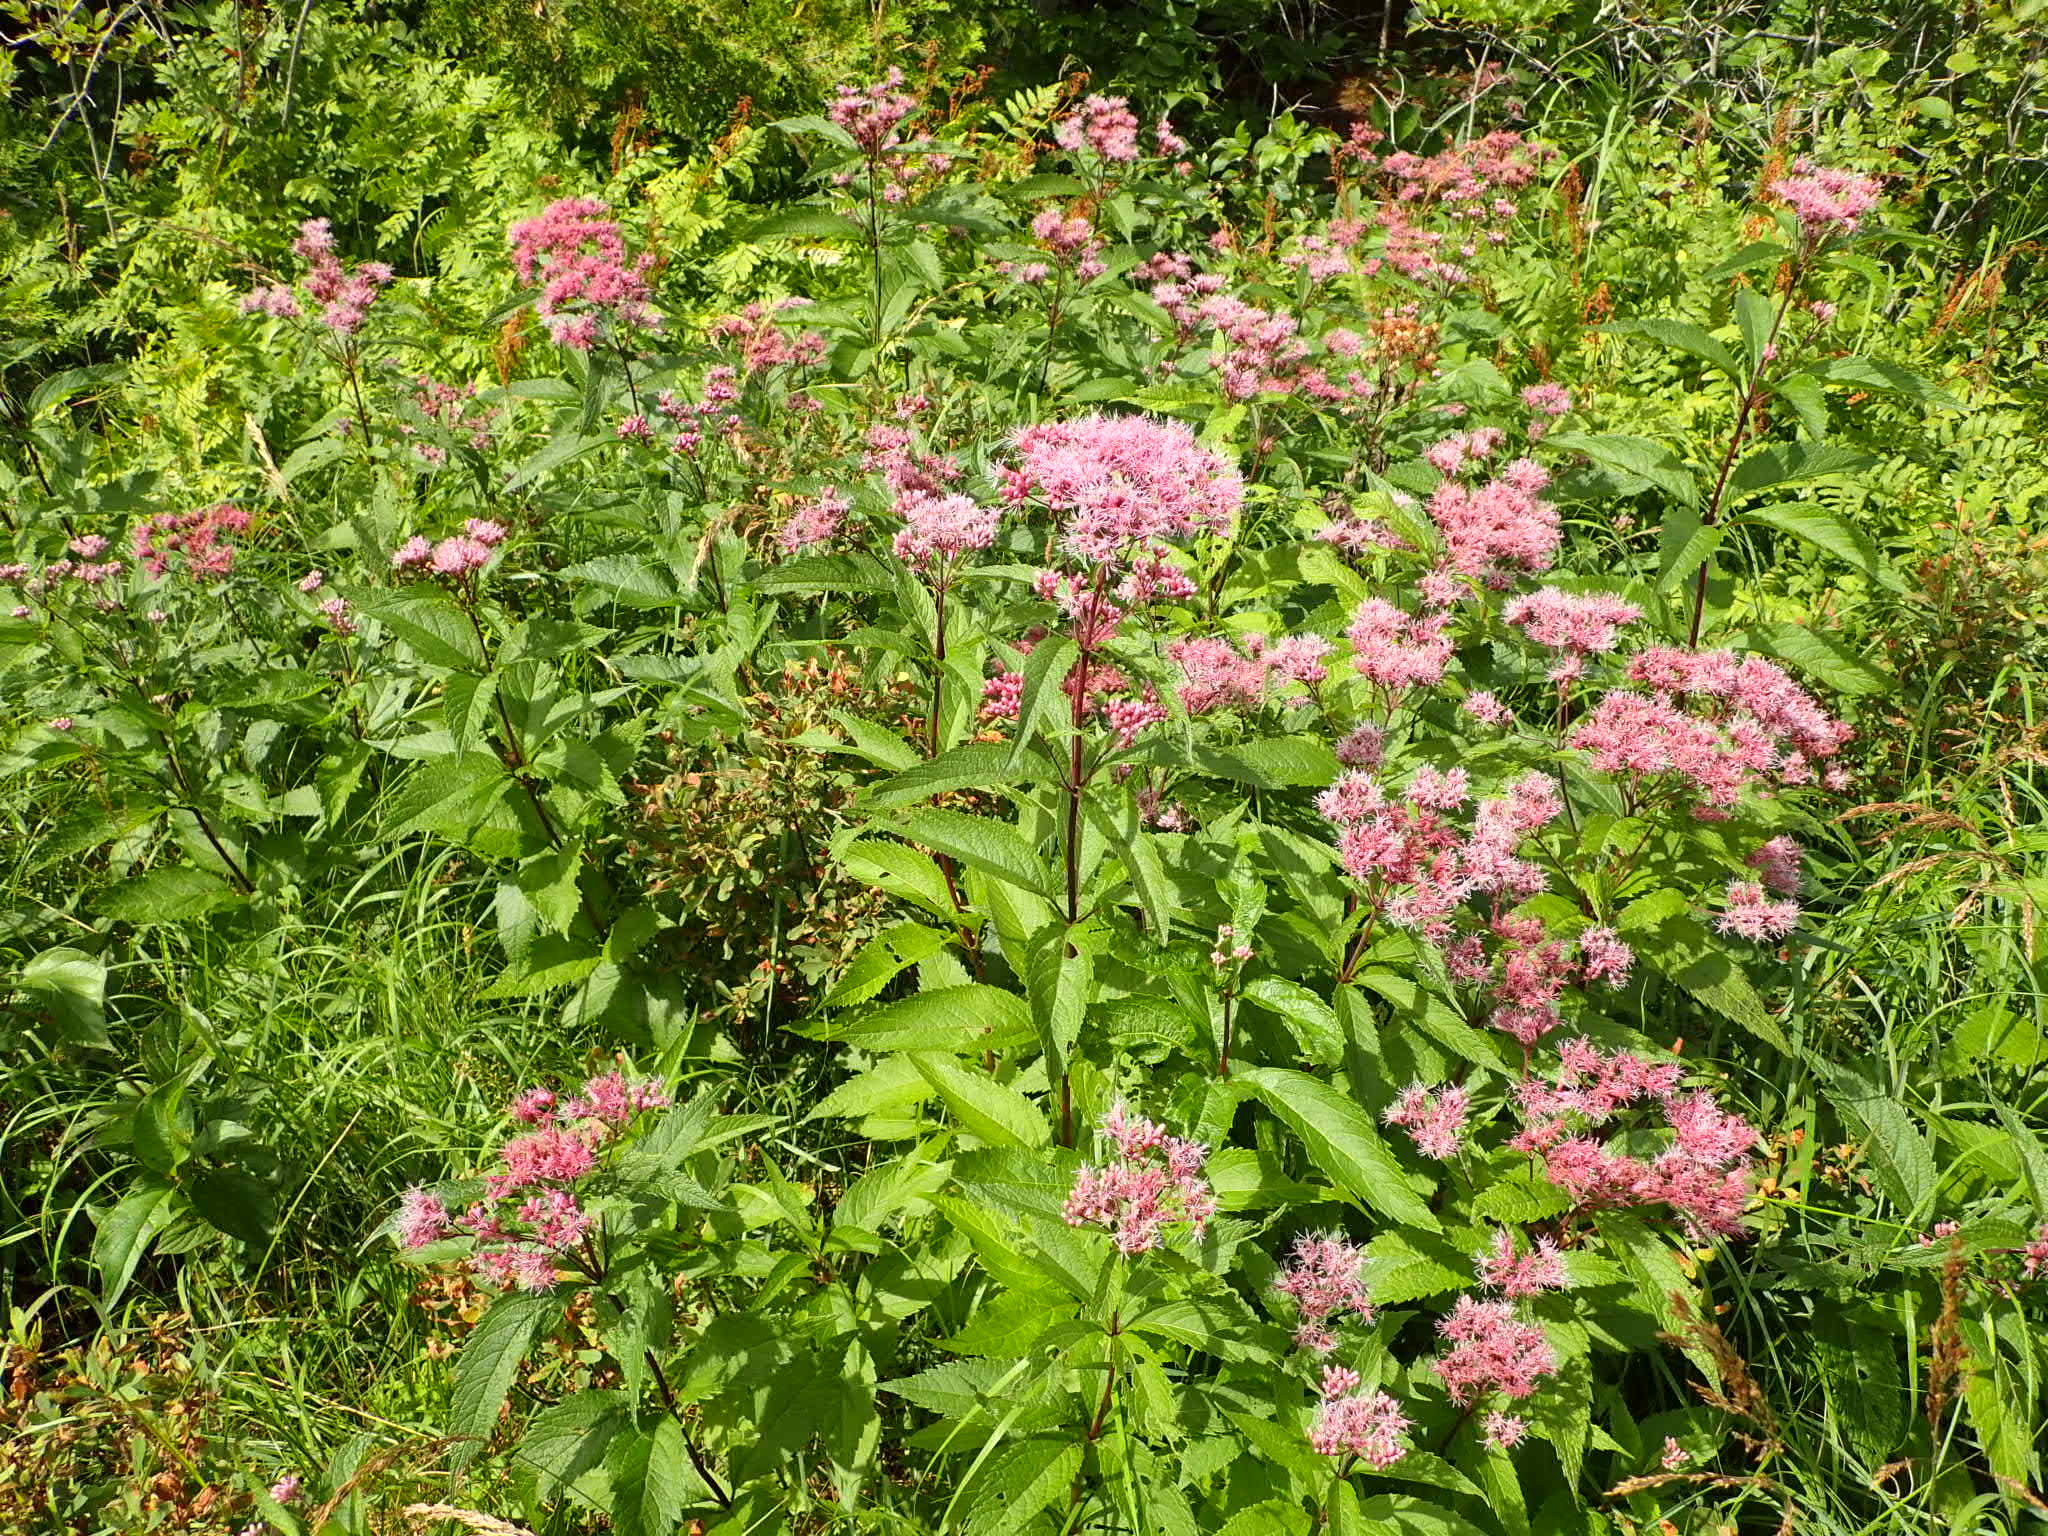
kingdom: Plantae
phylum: Tracheophyta
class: Magnoliopsida
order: Asterales
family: Asteraceae
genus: Eutrochium
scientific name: Eutrochium maculatum
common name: Spotted joe pye weed
